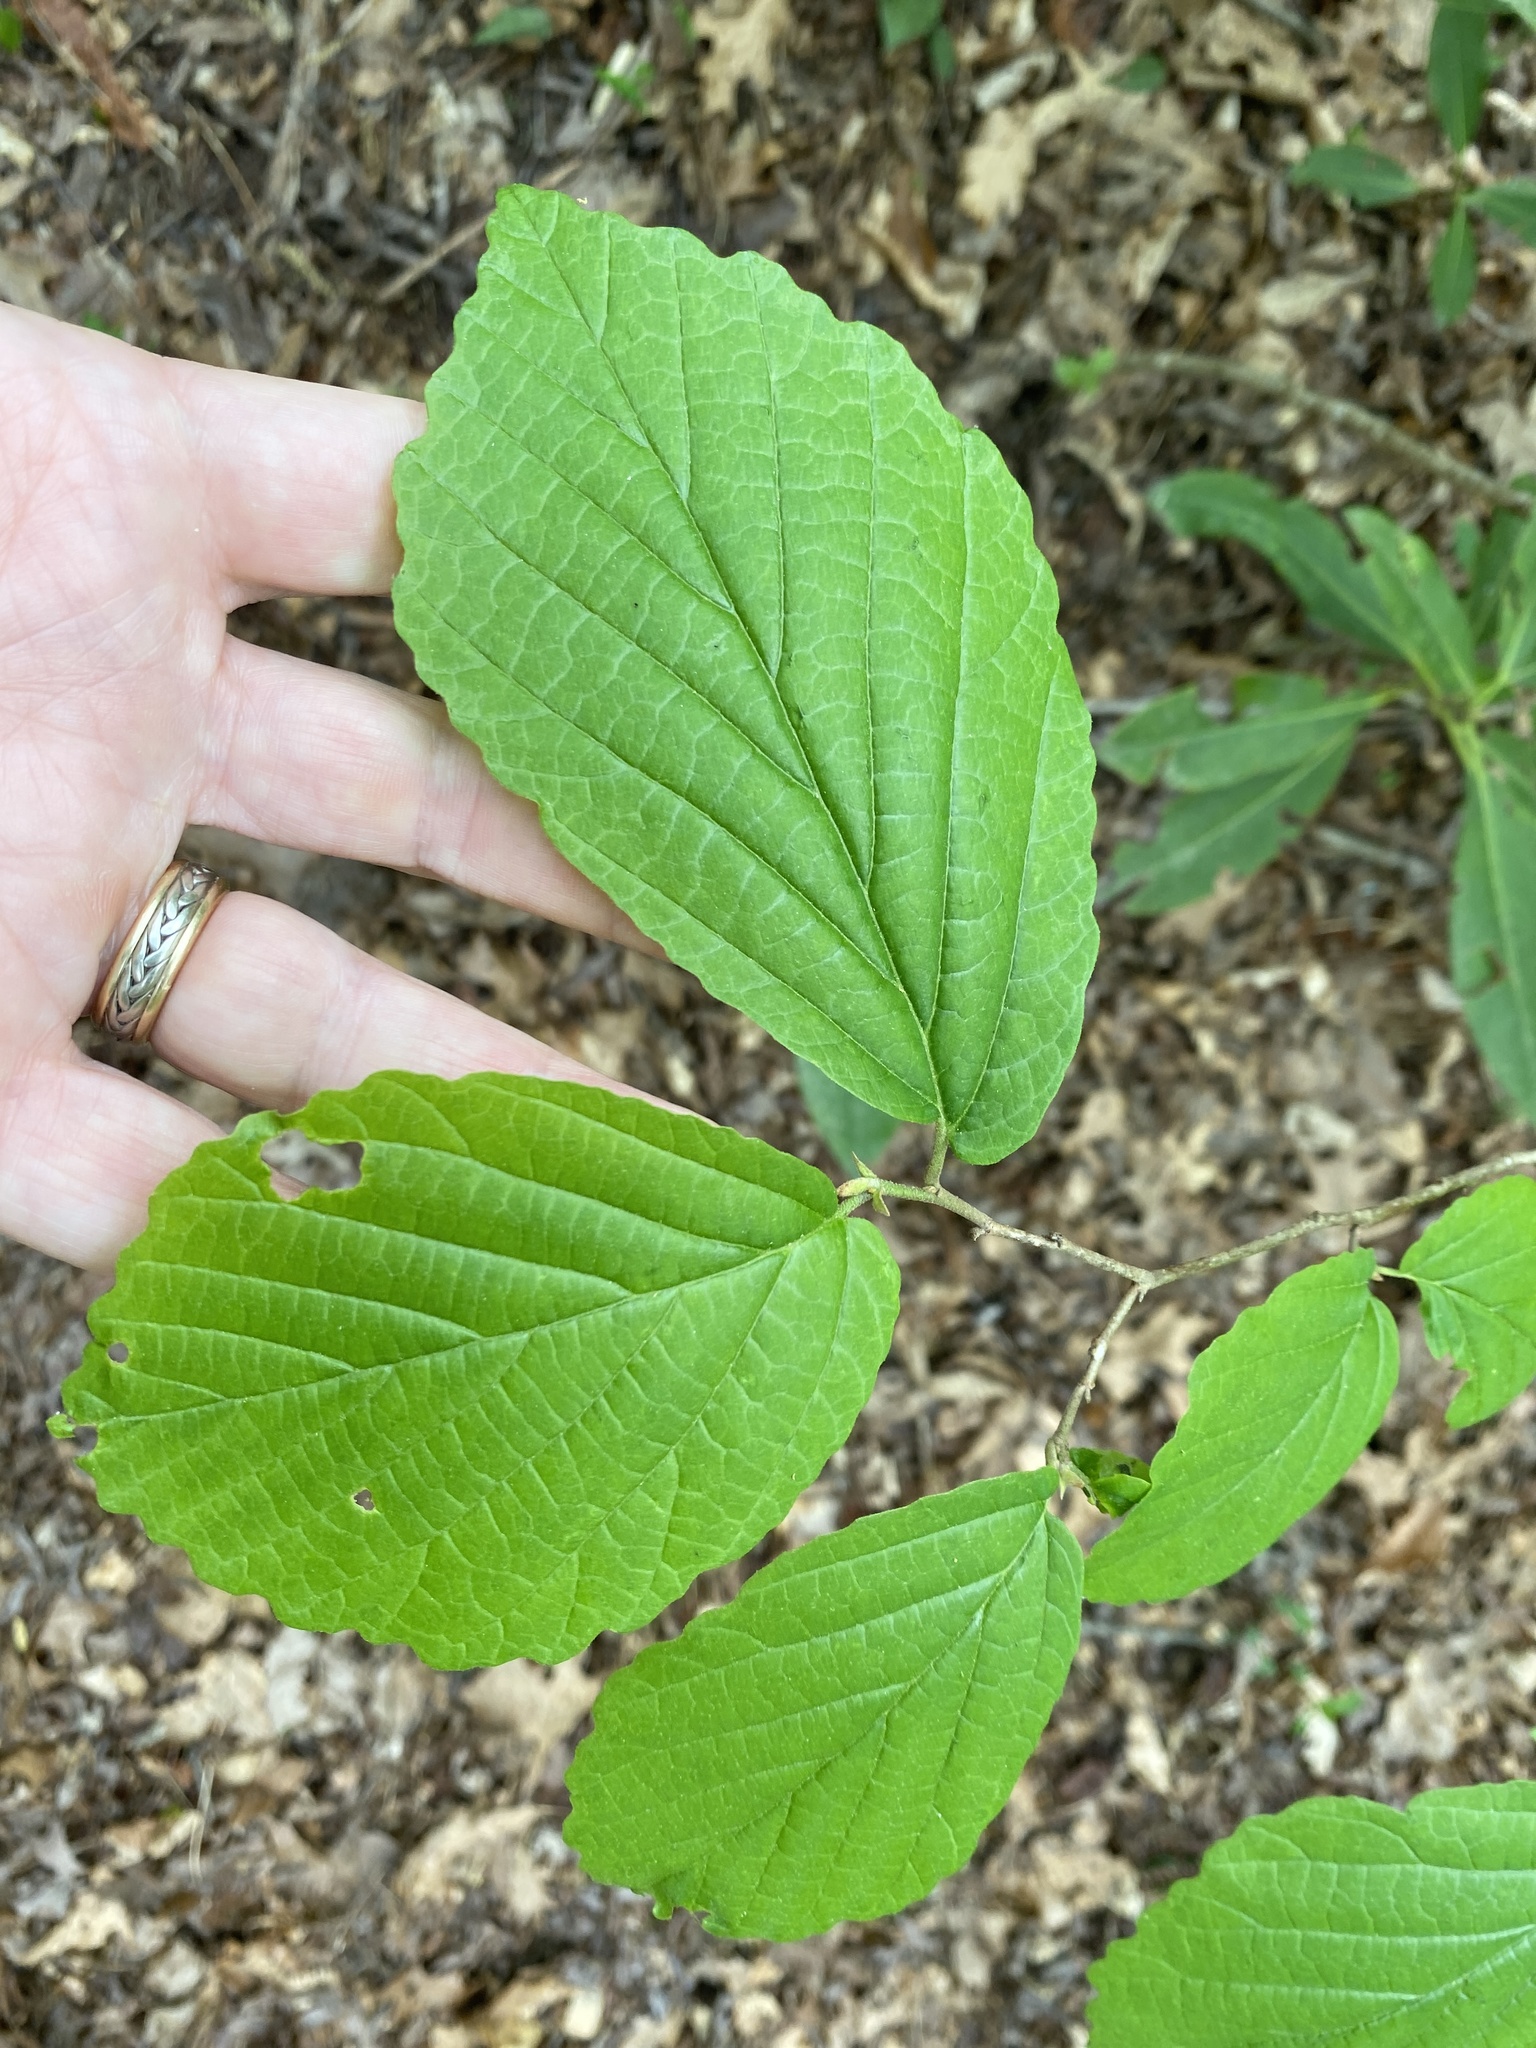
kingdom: Plantae
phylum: Tracheophyta
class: Magnoliopsida
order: Saxifragales
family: Hamamelidaceae
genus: Hamamelis
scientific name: Hamamelis virginiana
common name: Witch-hazel
